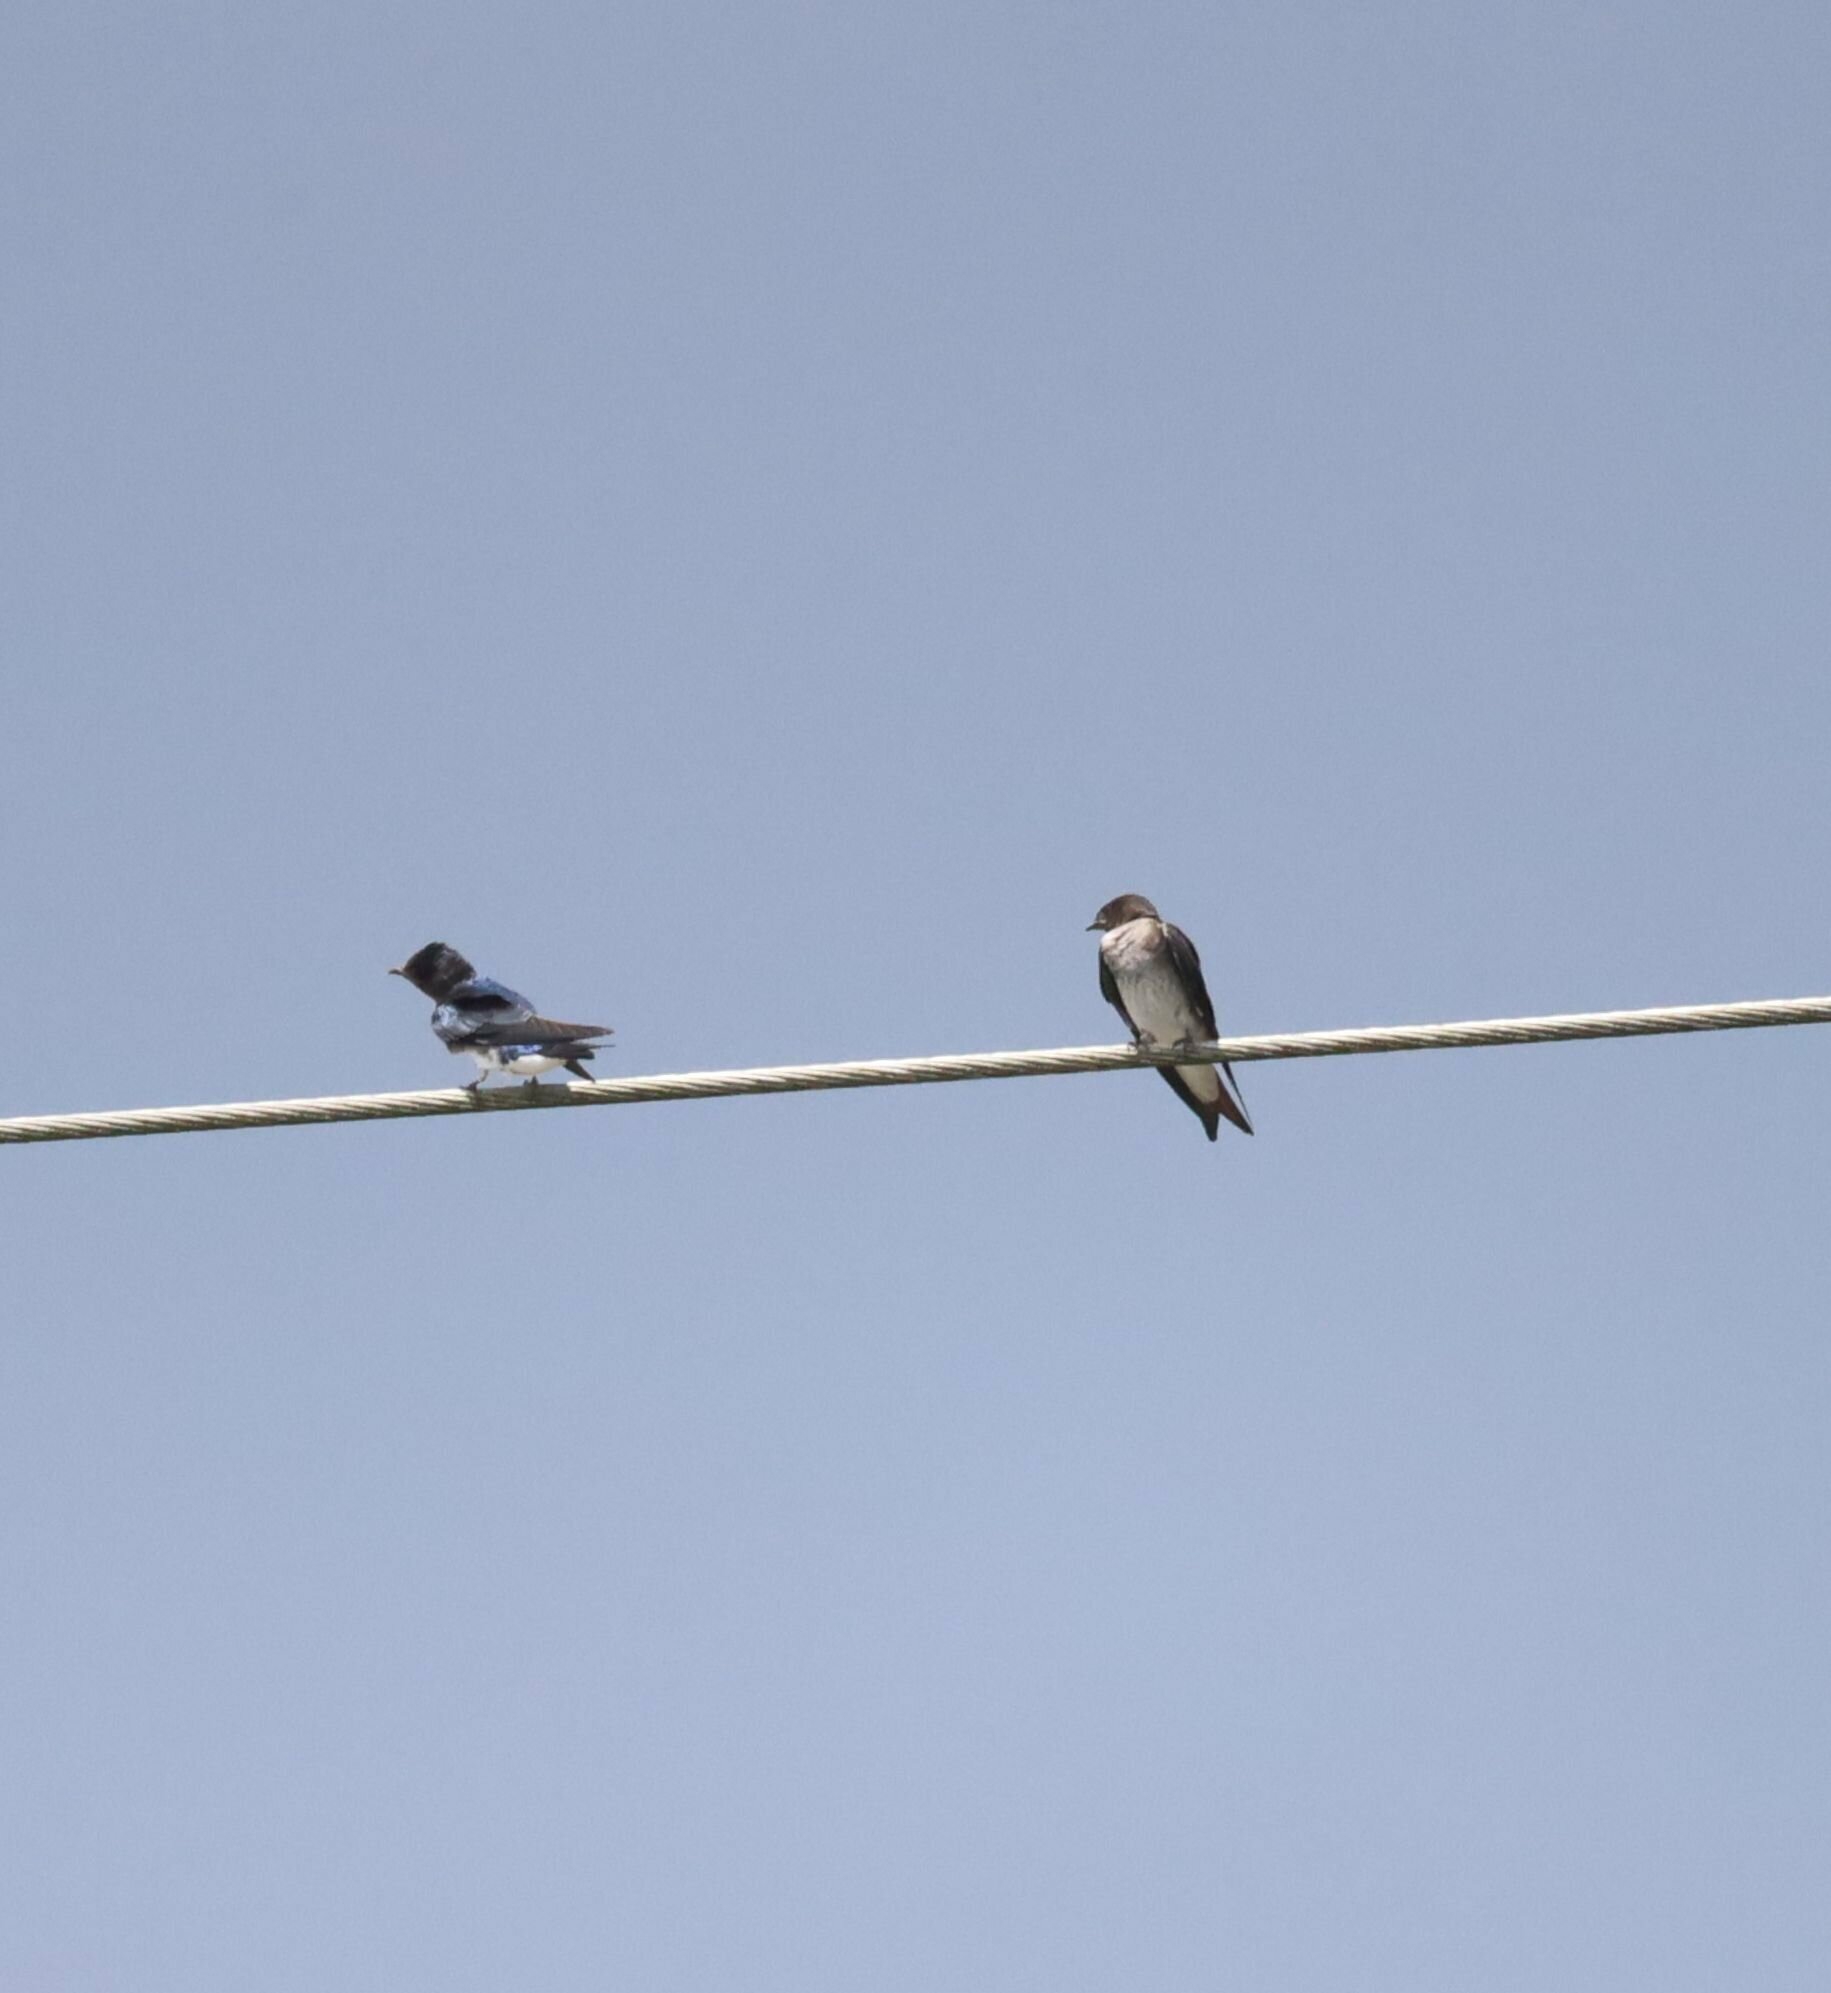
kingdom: Animalia
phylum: Chordata
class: Aves
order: Passeriformes
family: Hirundinidae
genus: Progne
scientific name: Progne chalybea
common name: Grey-breasted martin
